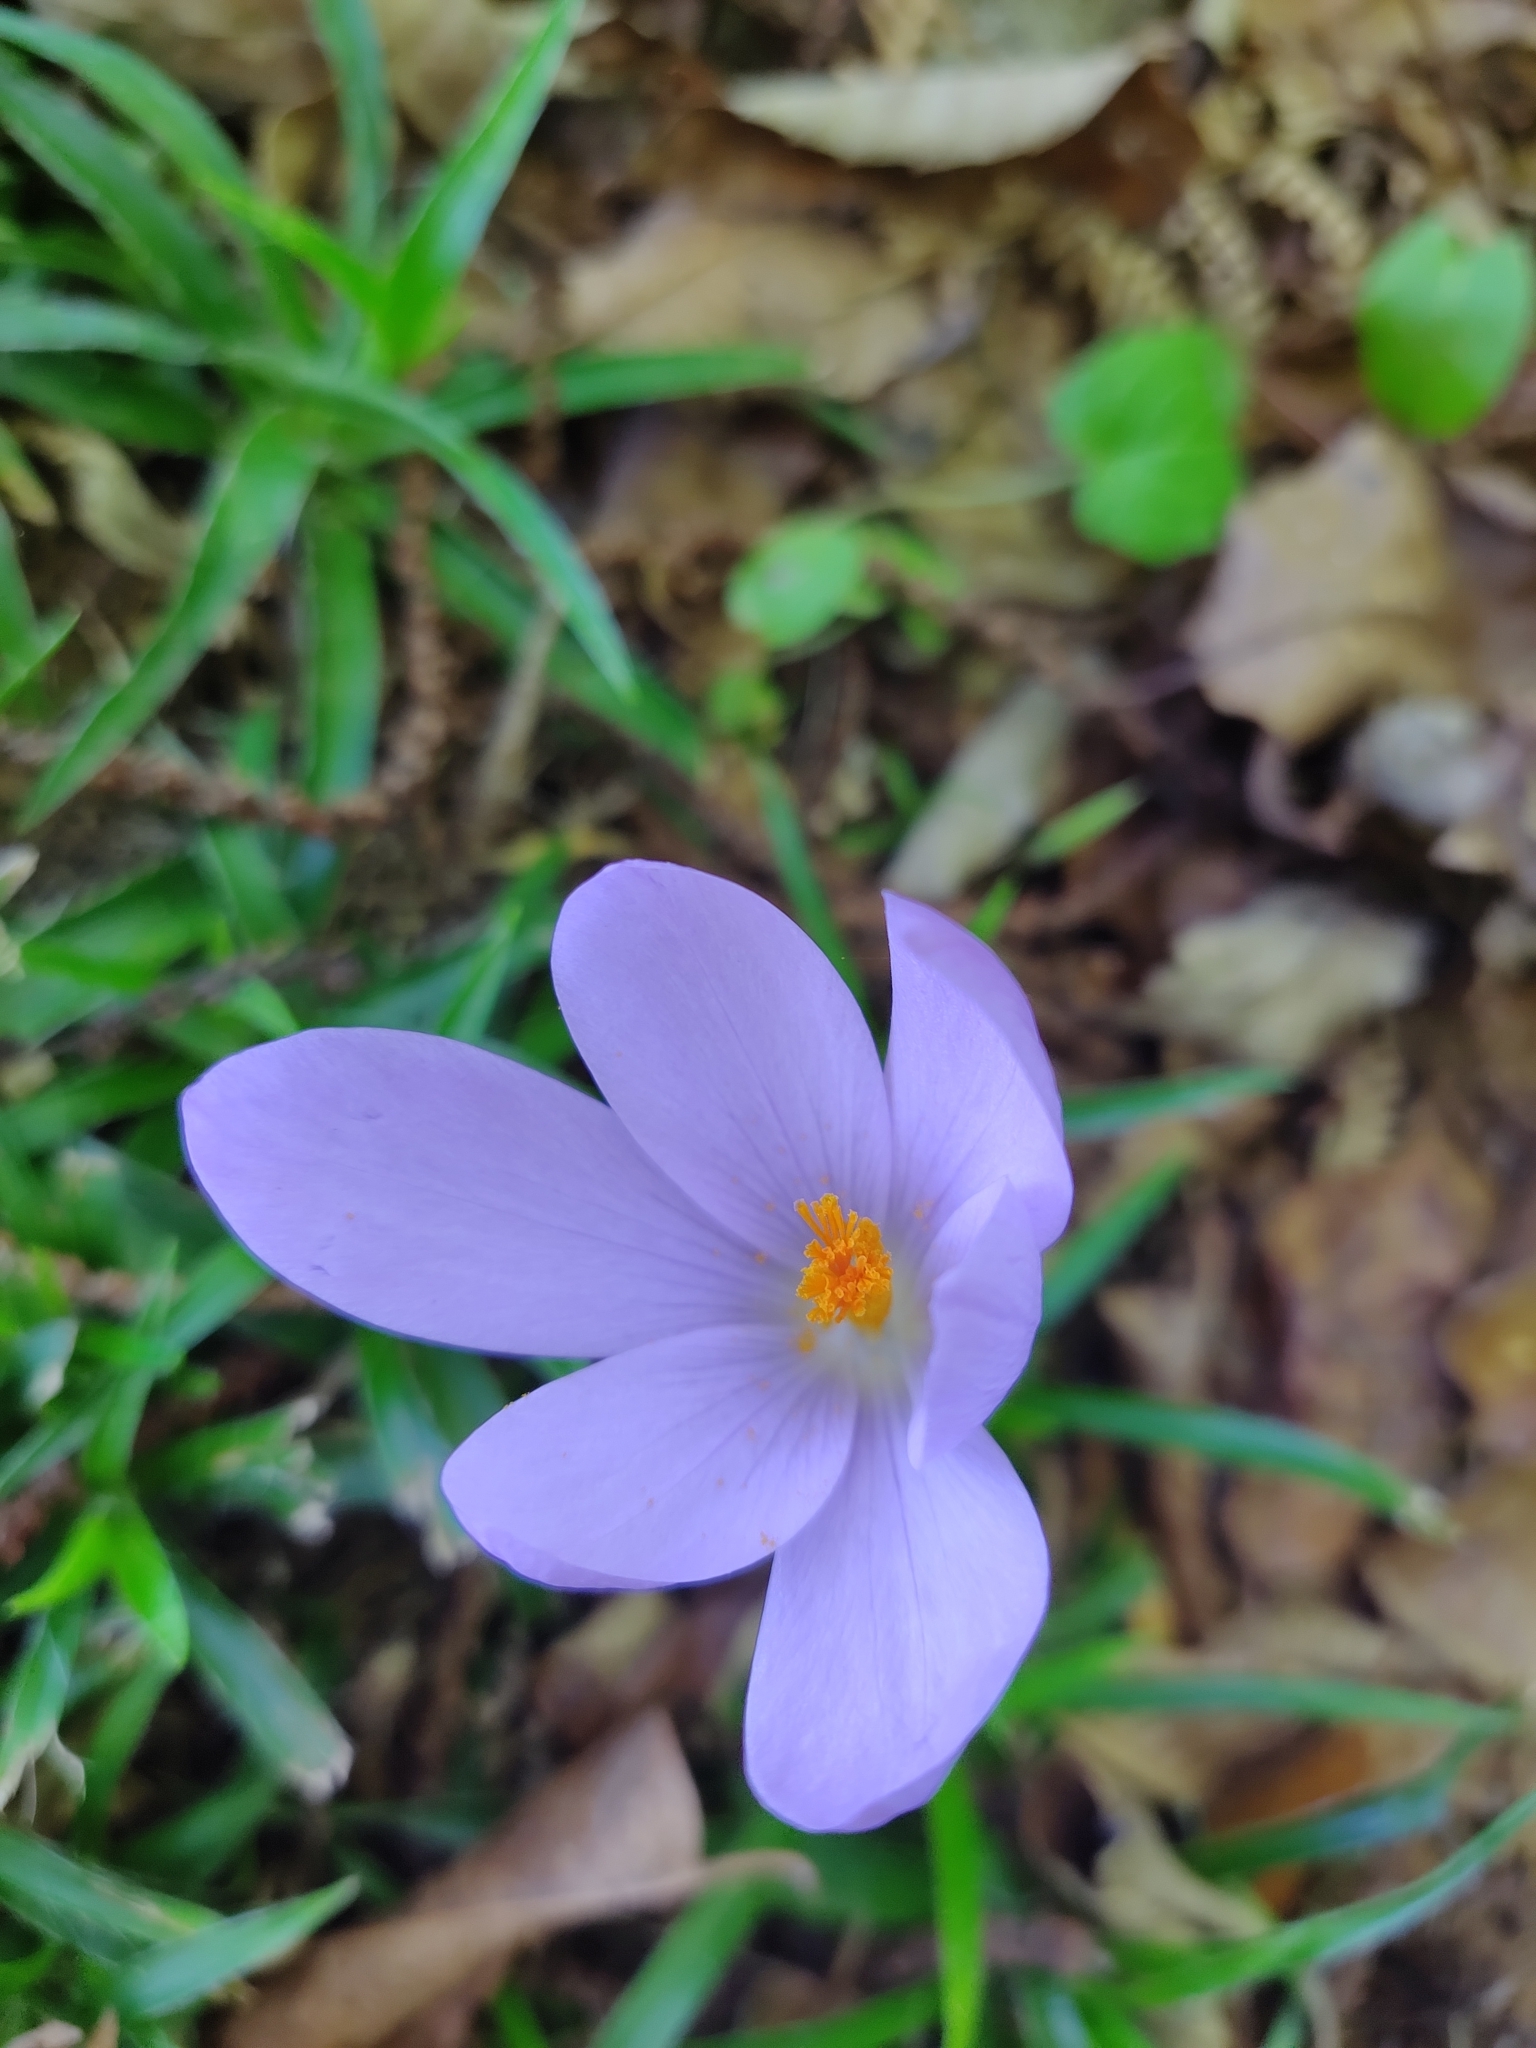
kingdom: Plantae
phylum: Tracheophyta
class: Liliopsida
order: Asparagales
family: Iridaceae
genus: Crocus
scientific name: Crocus serotinus
